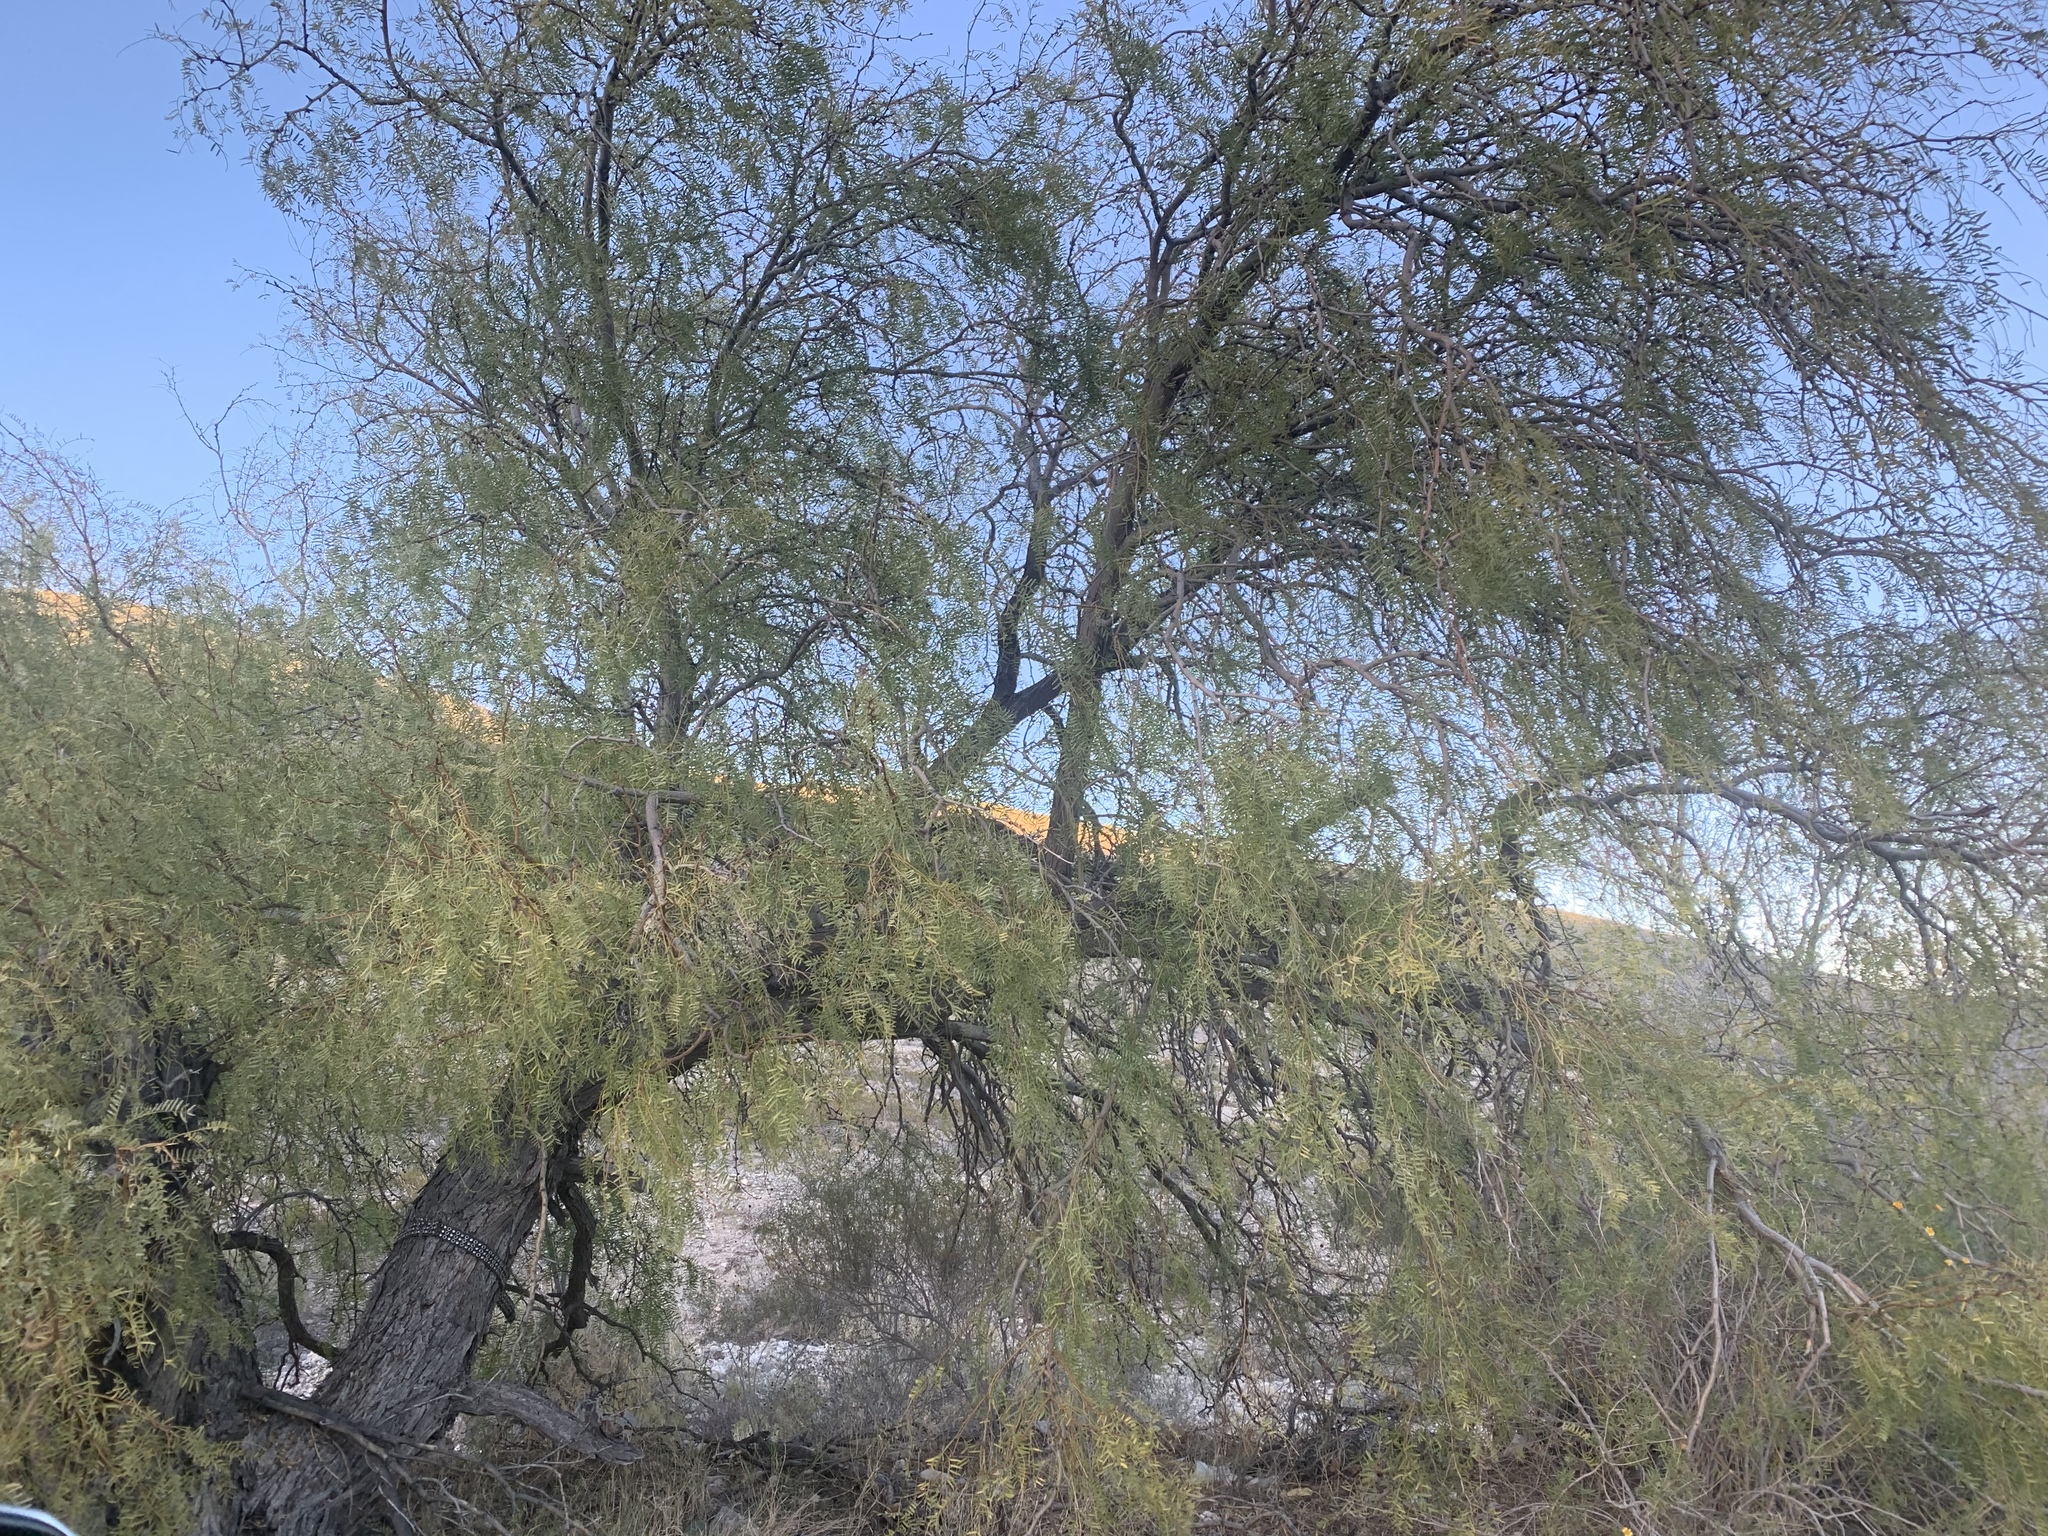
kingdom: Plantae
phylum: Tracheophyta
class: Magnoliopsida
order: Fabales
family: Fabaceae
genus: Prosopis
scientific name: Prosopis glandulosa
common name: Honey mesquite
